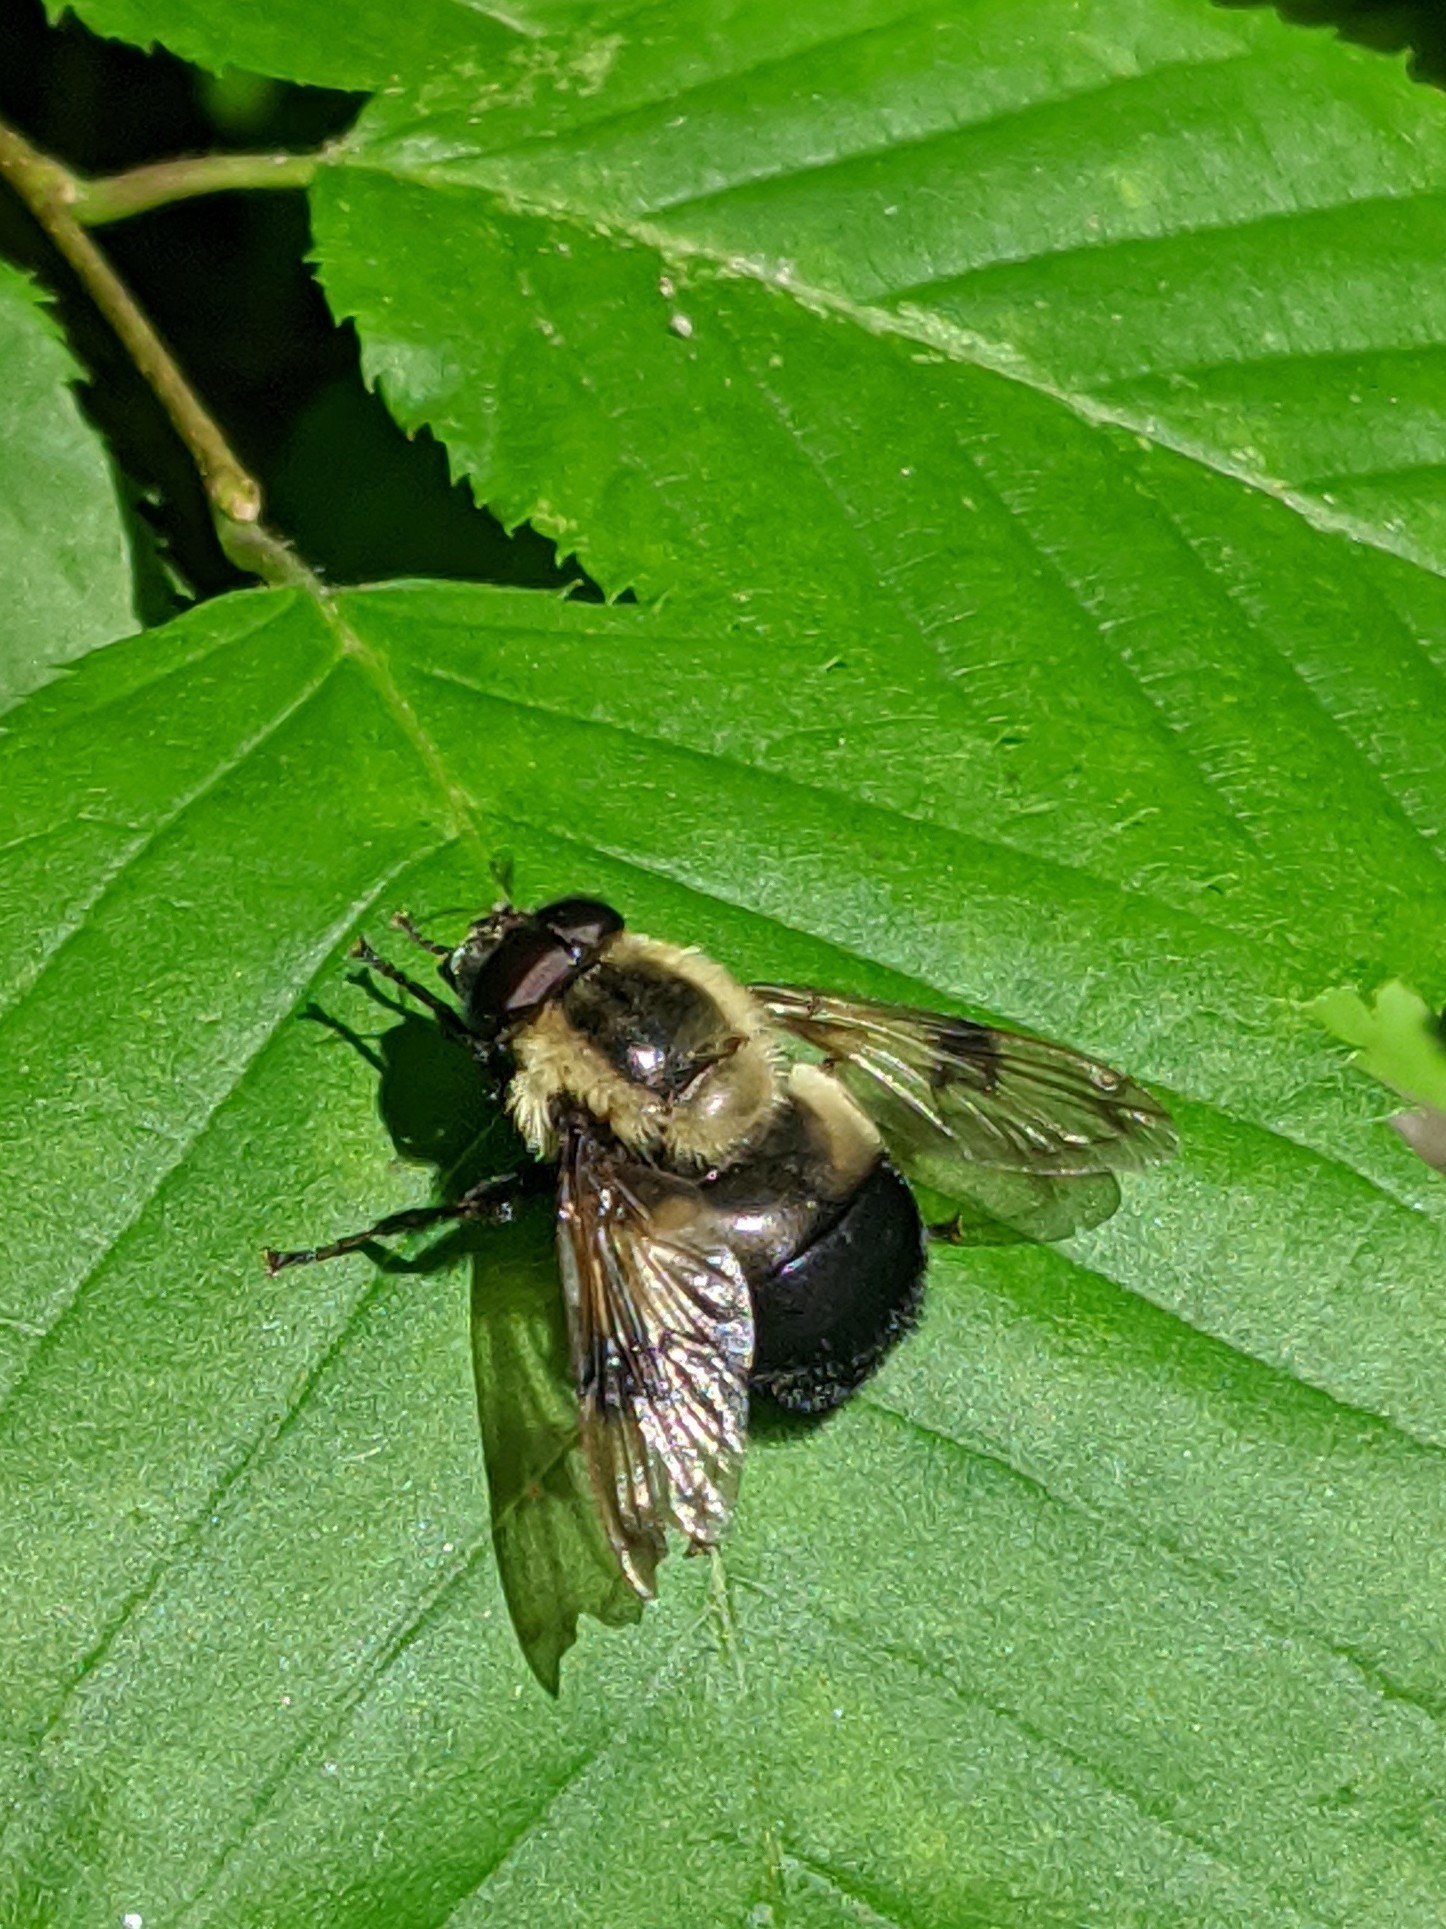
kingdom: Animalia
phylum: Arthropoda
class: Insecta
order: Diptera
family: Syrphidae
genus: Imatisma
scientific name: Imatisma posticata
